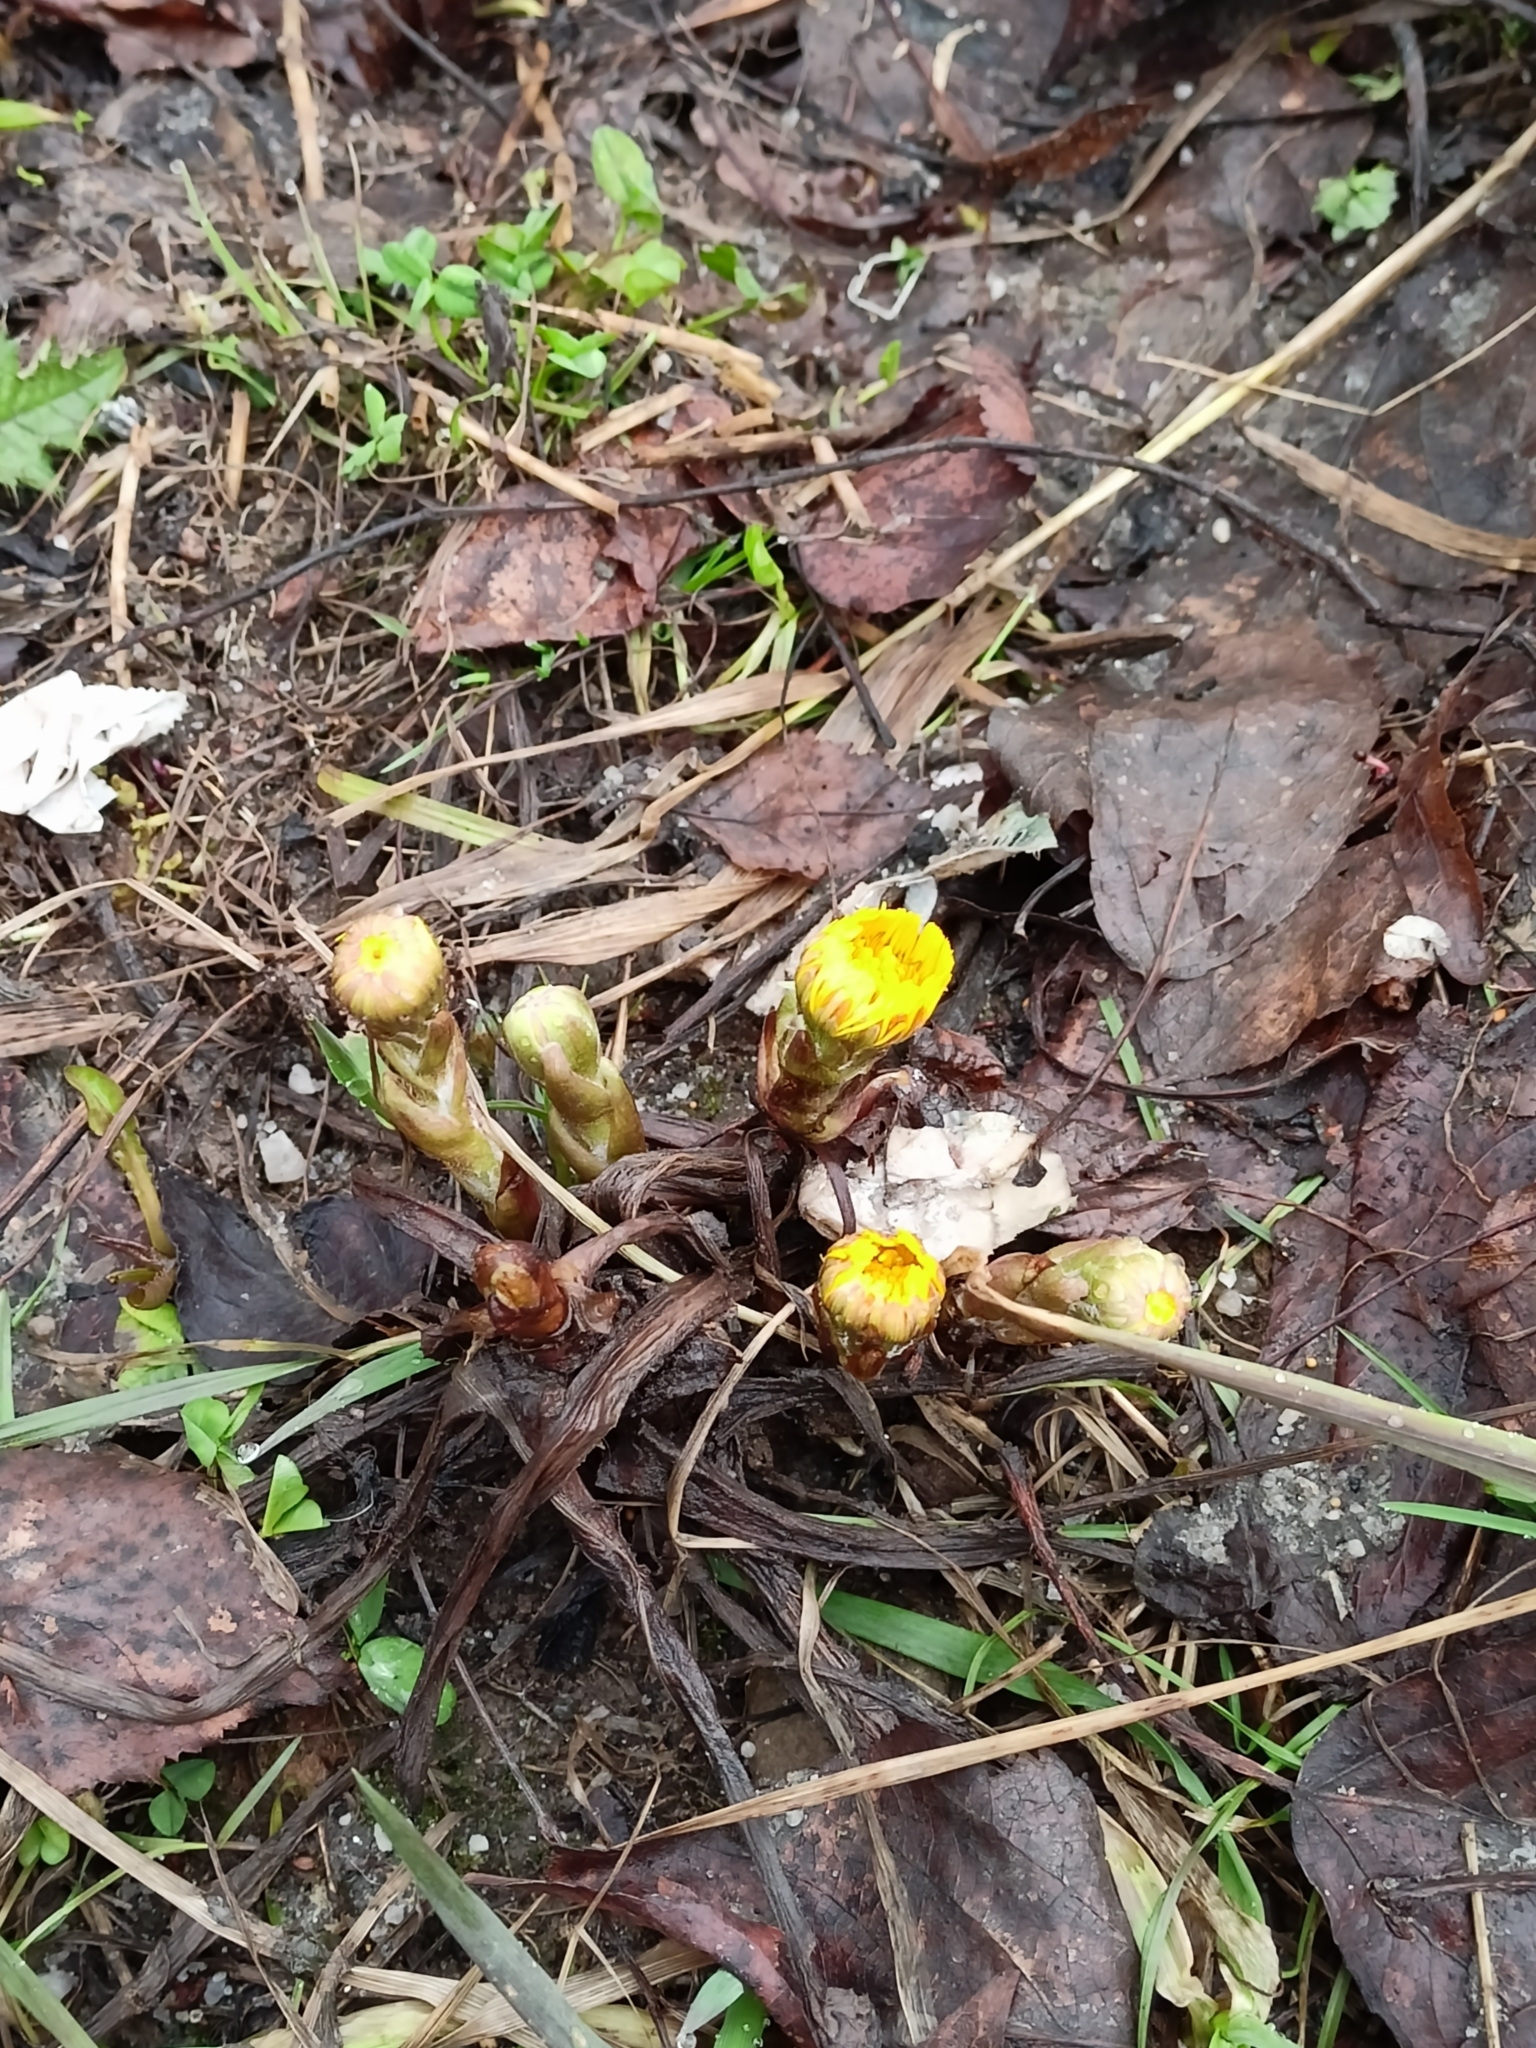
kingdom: Plantae
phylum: Tracheophyta
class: Magnoliopsida
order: Asterales
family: Asteraceae
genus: Tussilago
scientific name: Tussilago farfara
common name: Coltsfoot
